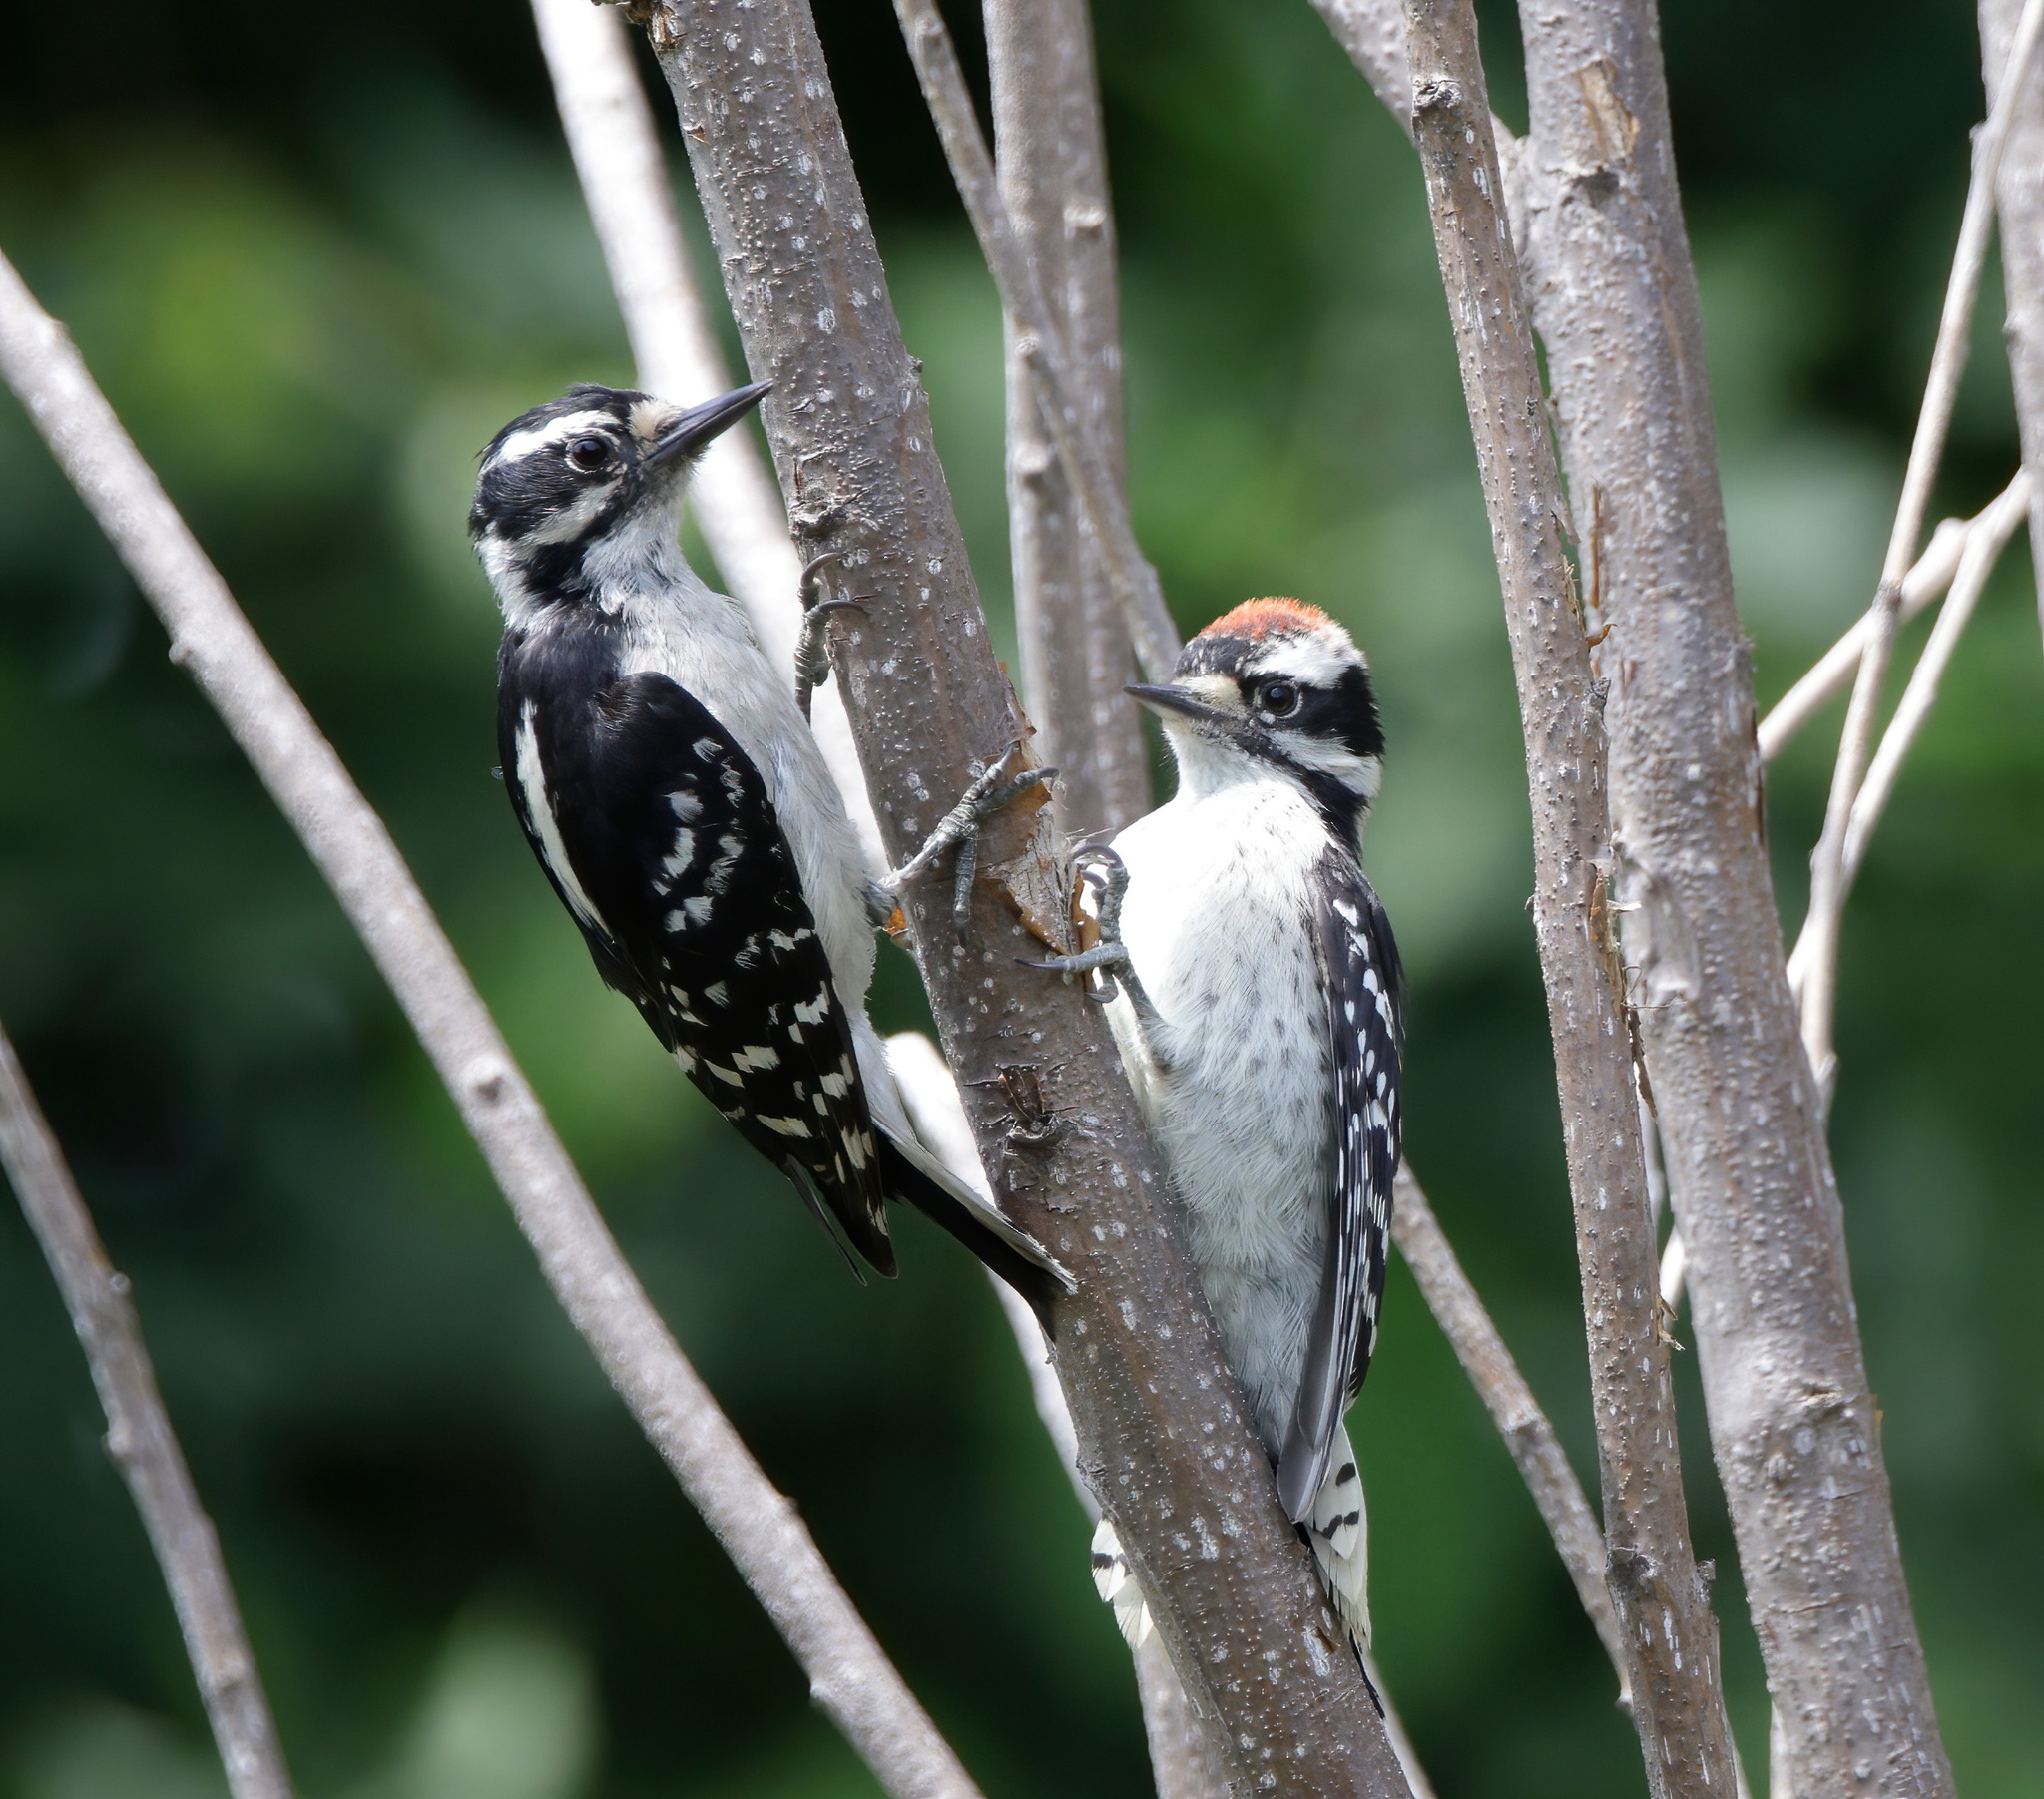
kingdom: Animalia
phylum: Chordata
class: Aves
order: Piciformes
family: Picidae
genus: Leuconotopicus
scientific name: Leuconotopicus villosus
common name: Hairy woodpecker
